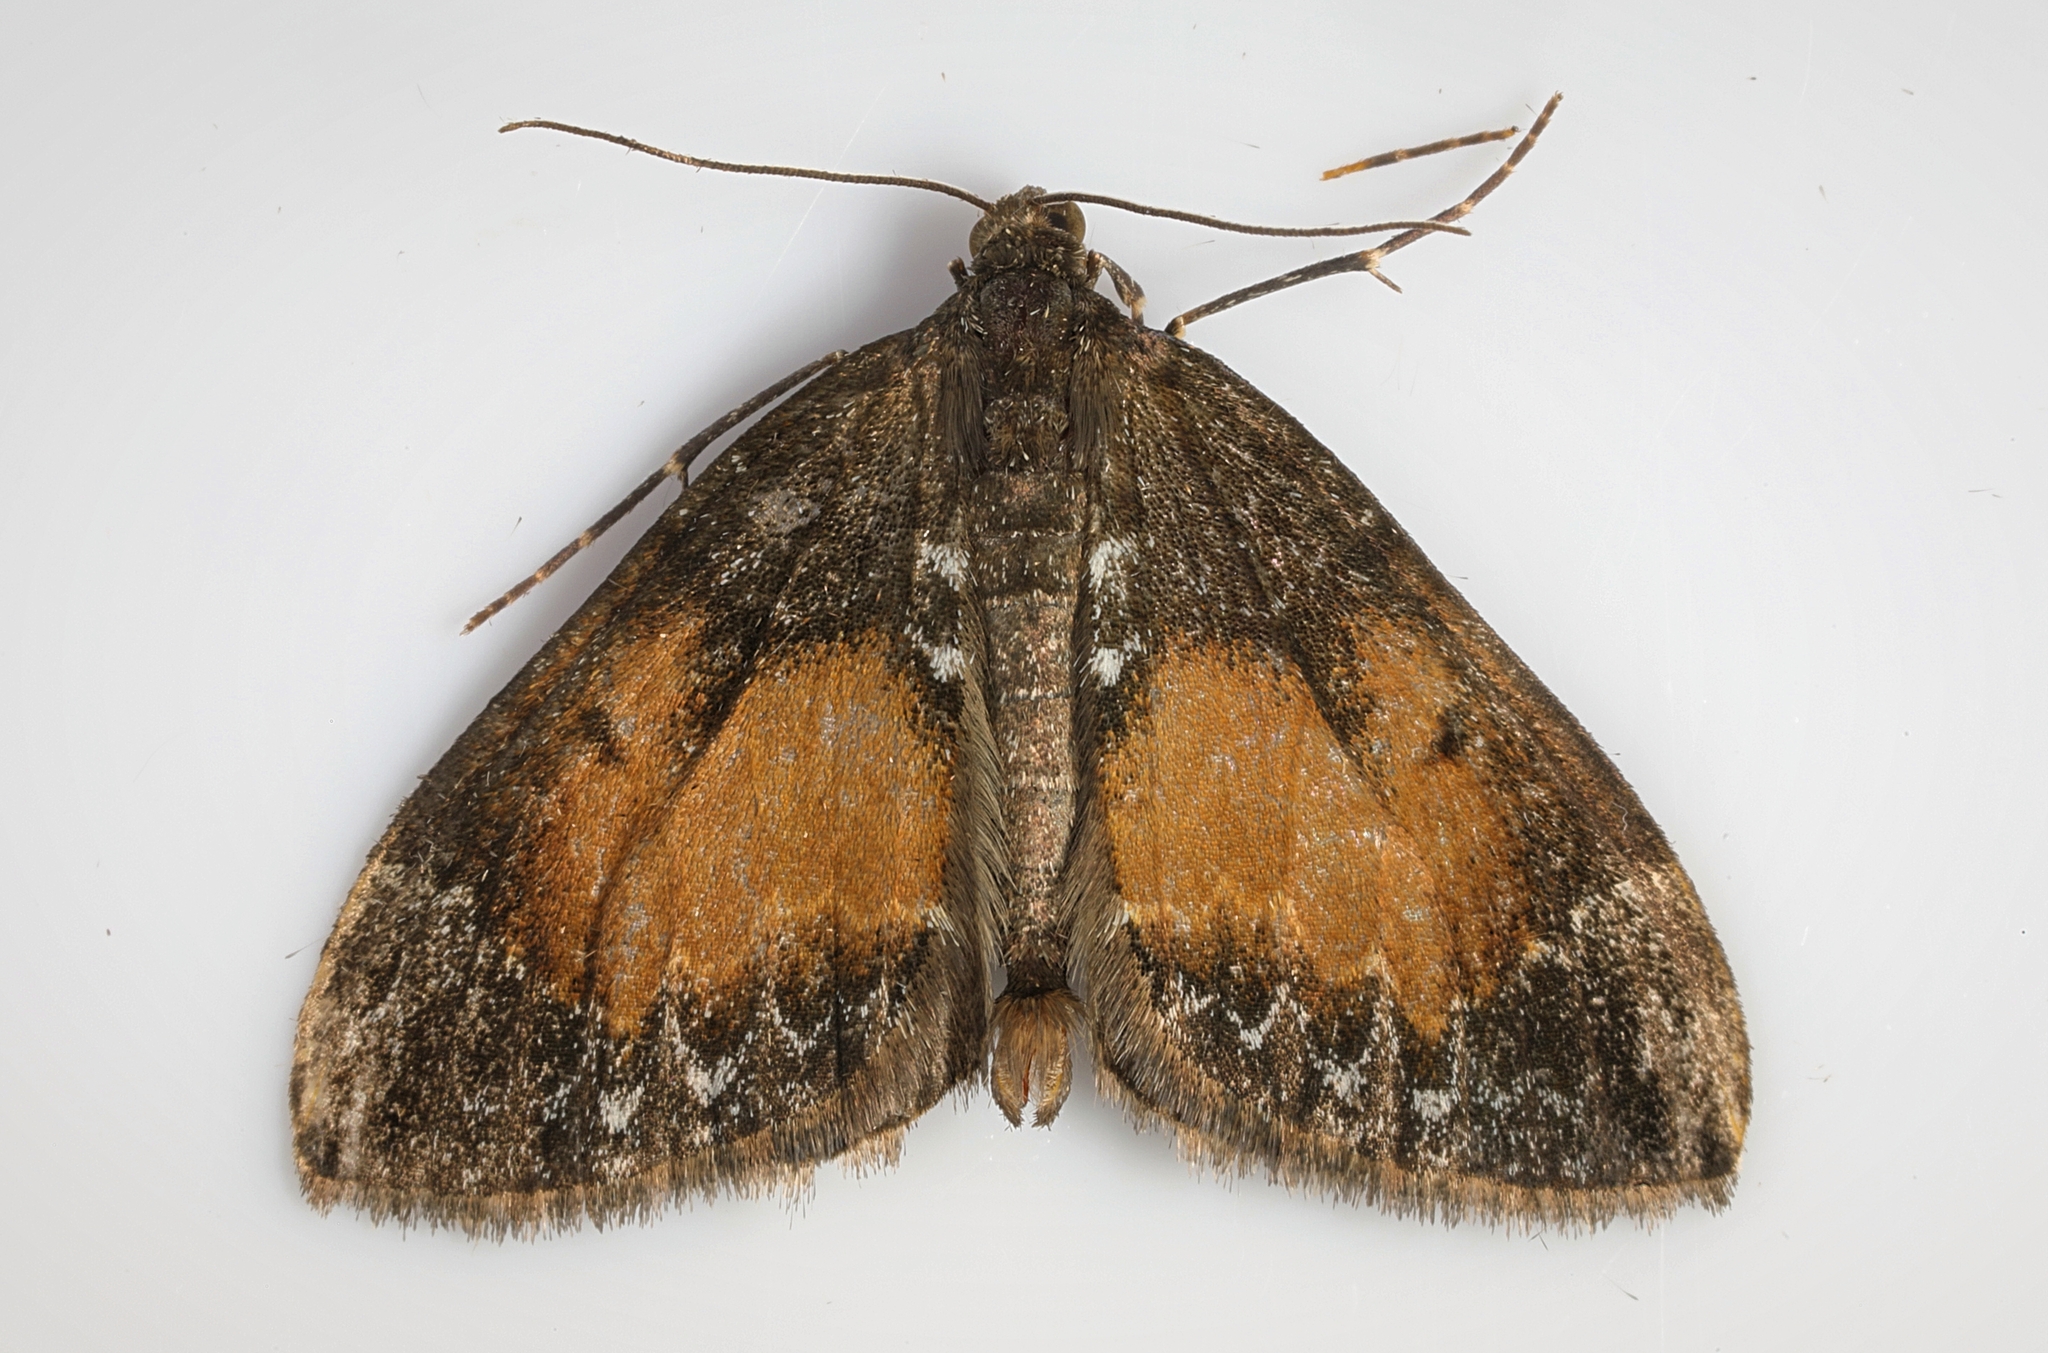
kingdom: Animalia
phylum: Arthropoda
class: Insecta
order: Lepidoptera
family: Geometridae
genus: Dysstroma
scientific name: Dysstroma truncata
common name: Common marbled carpet
